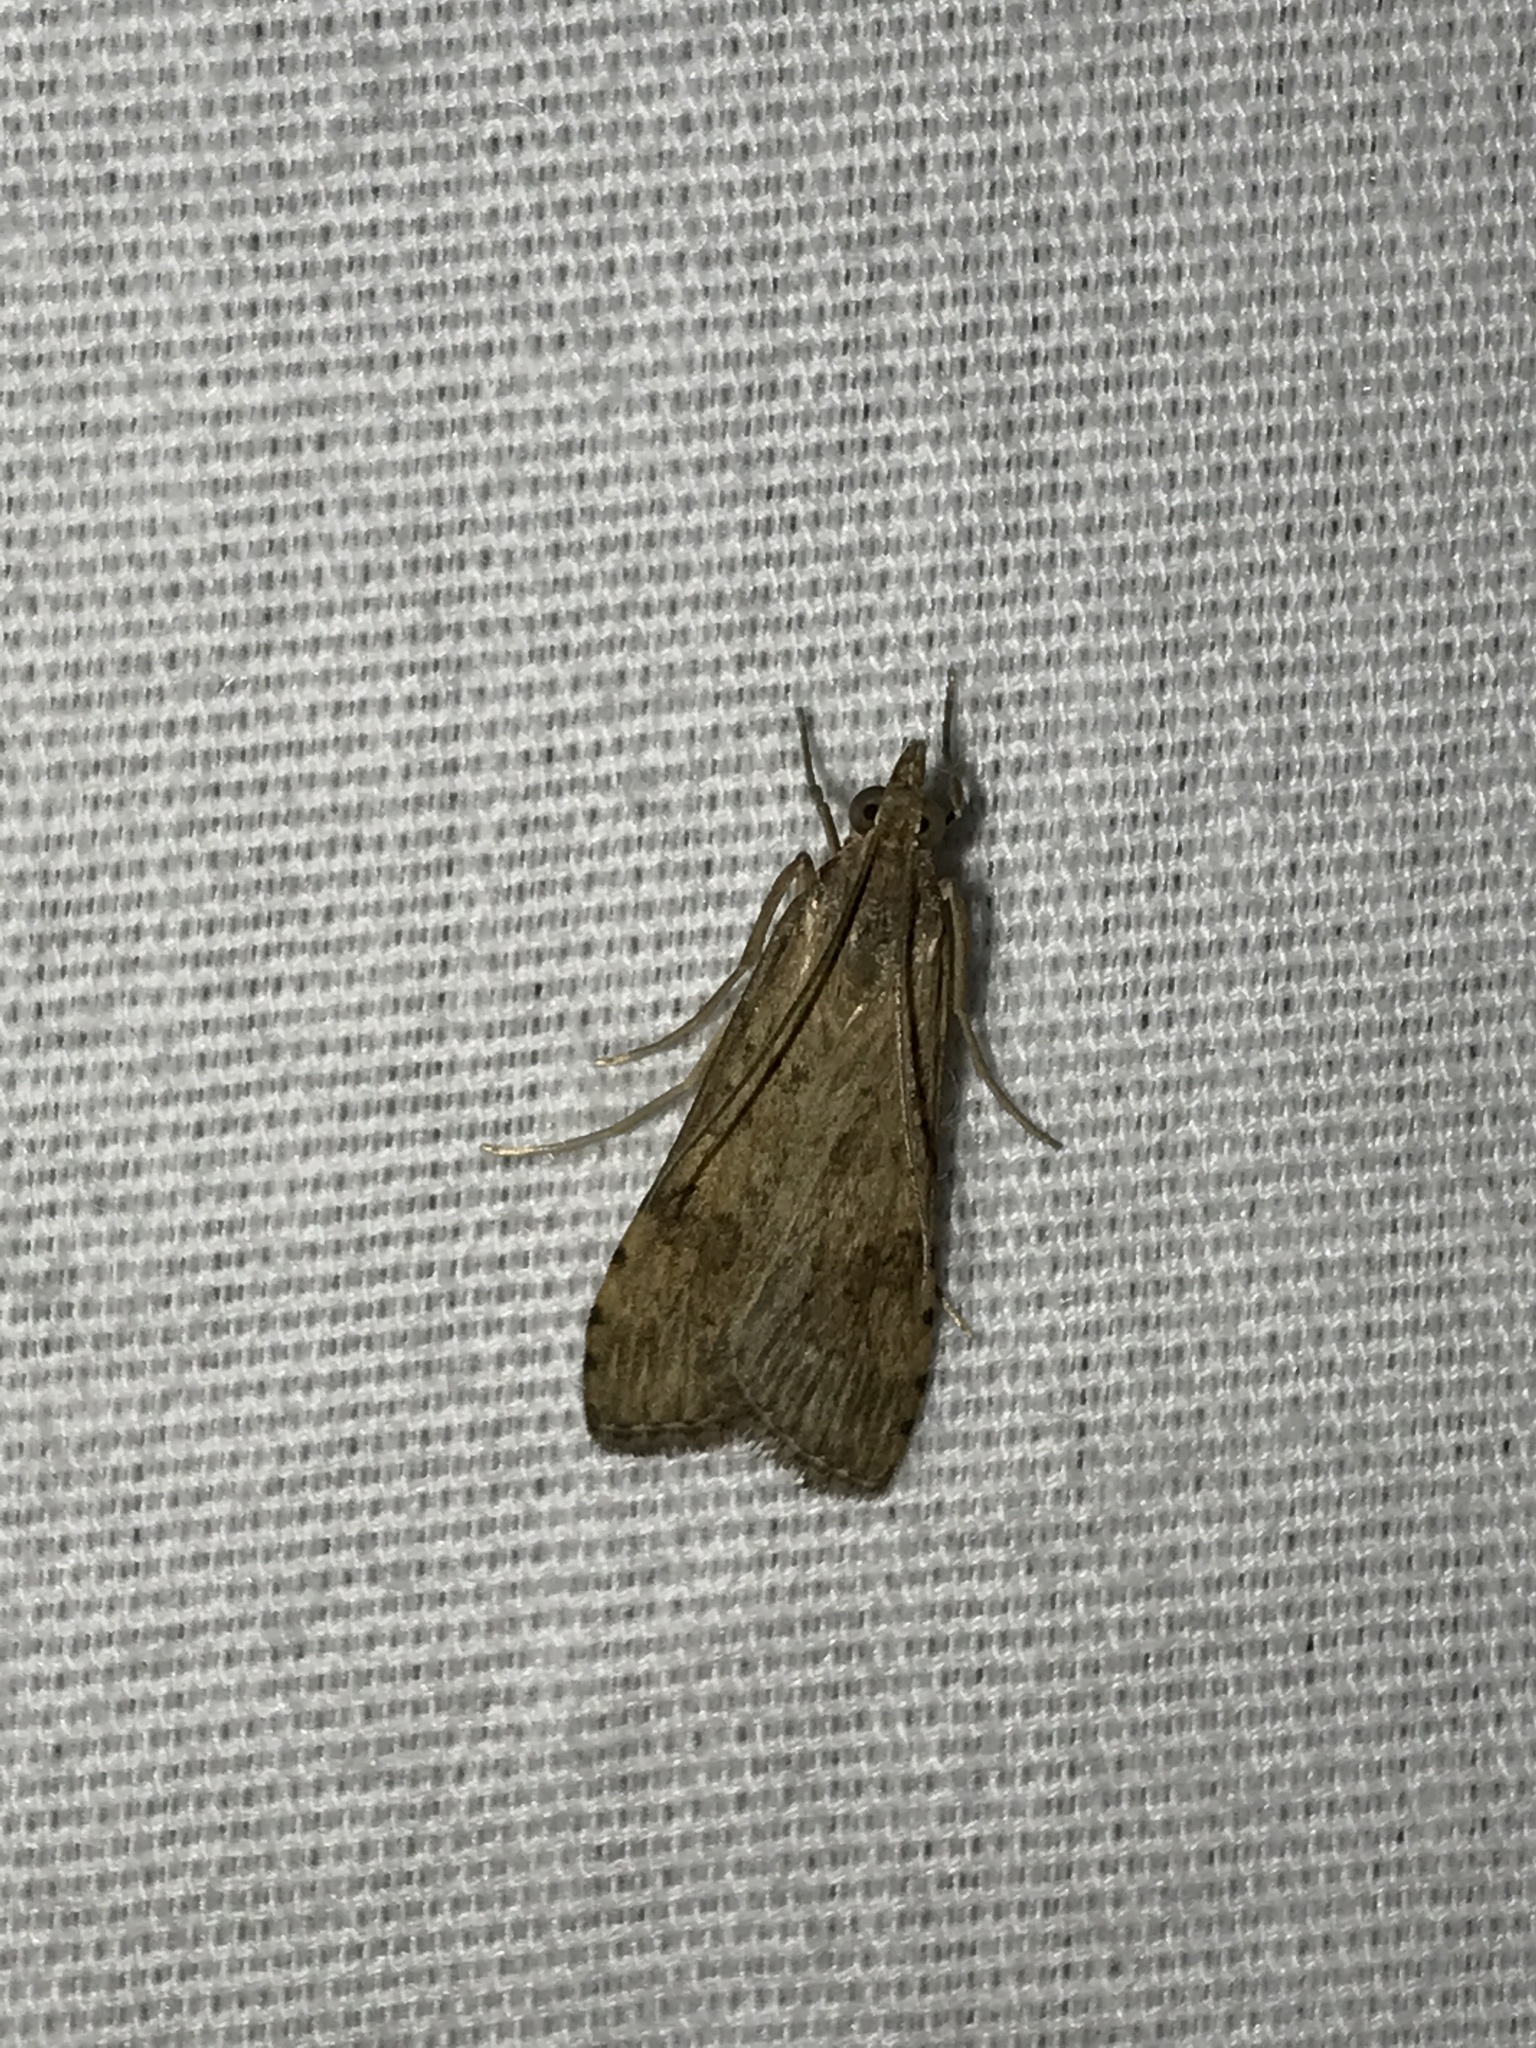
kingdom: Animalia
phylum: Arthropoda
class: Insecta
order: Lepidoptera
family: Crambidae
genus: Nomophila
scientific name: Nomophila nearctica
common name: American rush veneer
